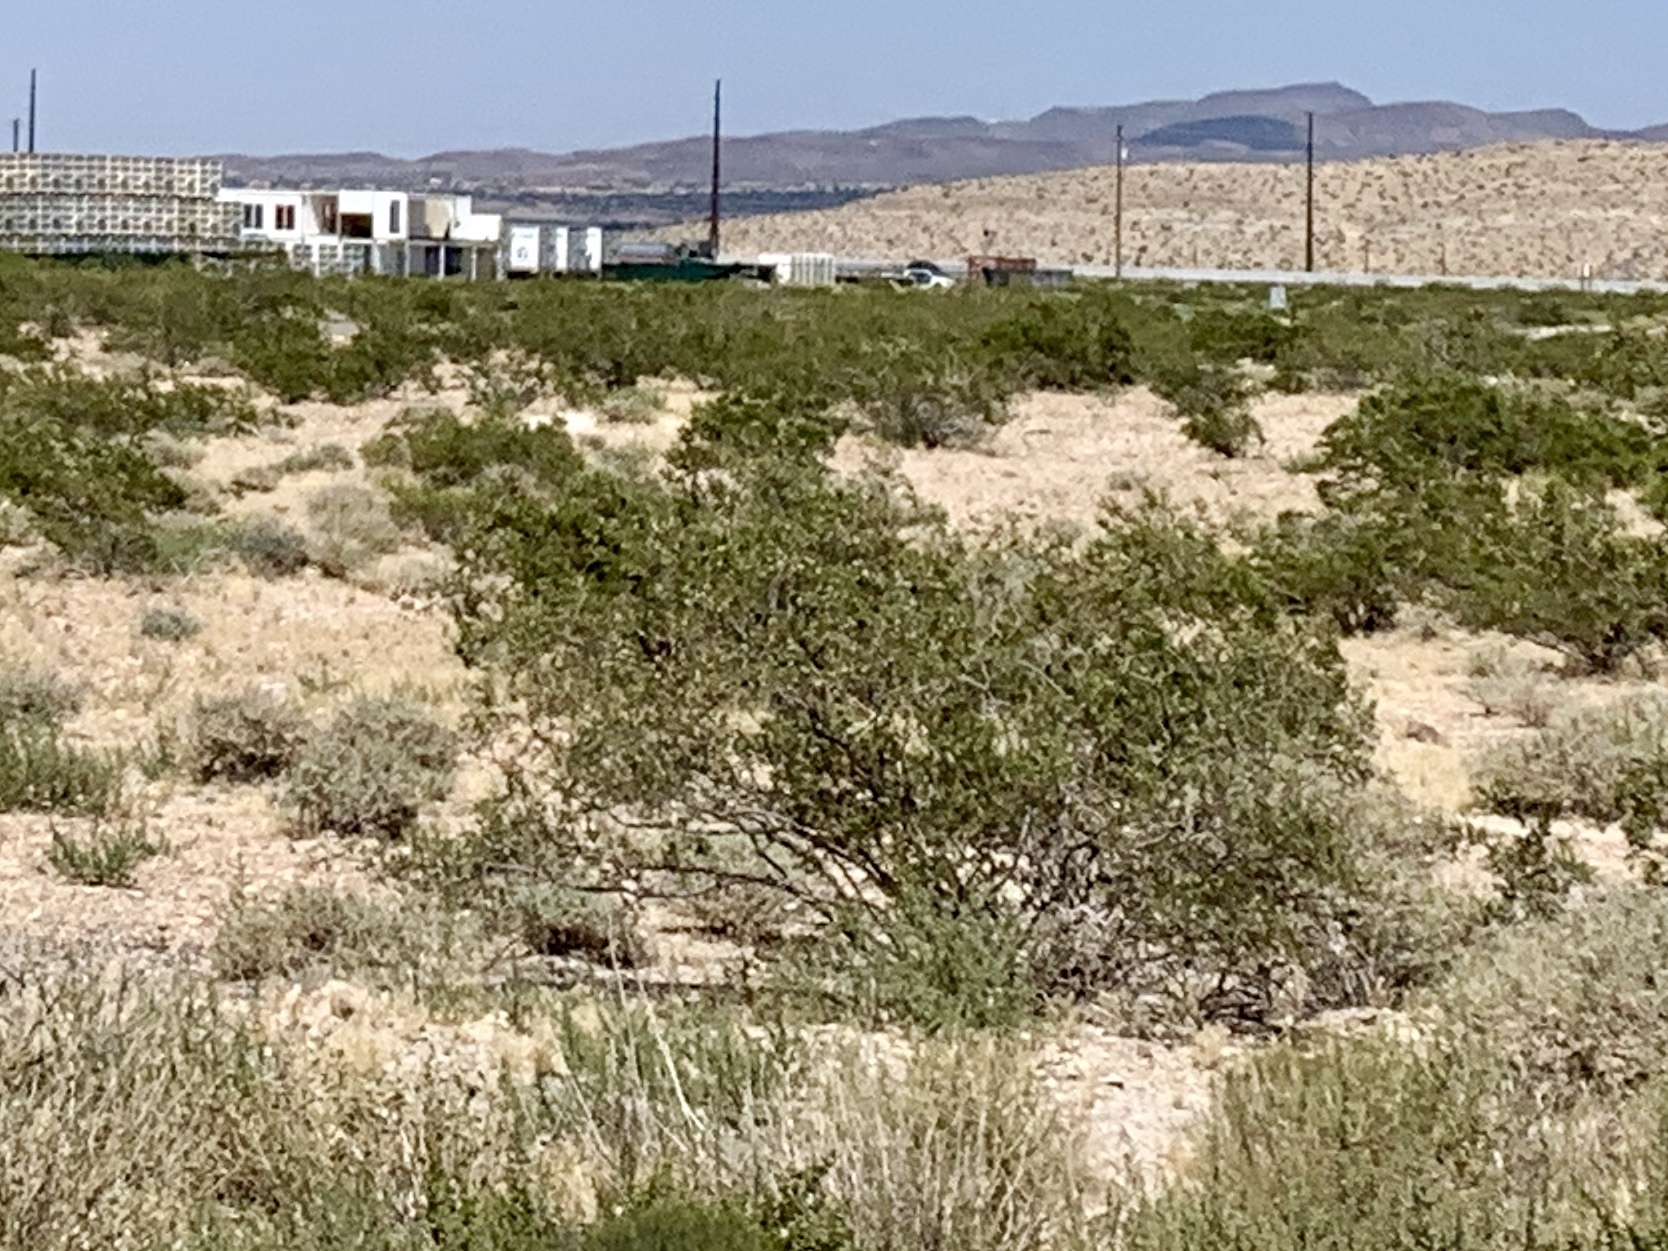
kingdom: Plantae
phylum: Tracheophyta
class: Magnoliopsida
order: Zygophyllales
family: Zygophyllaceae
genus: Larrea
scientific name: Larrea tridentata
